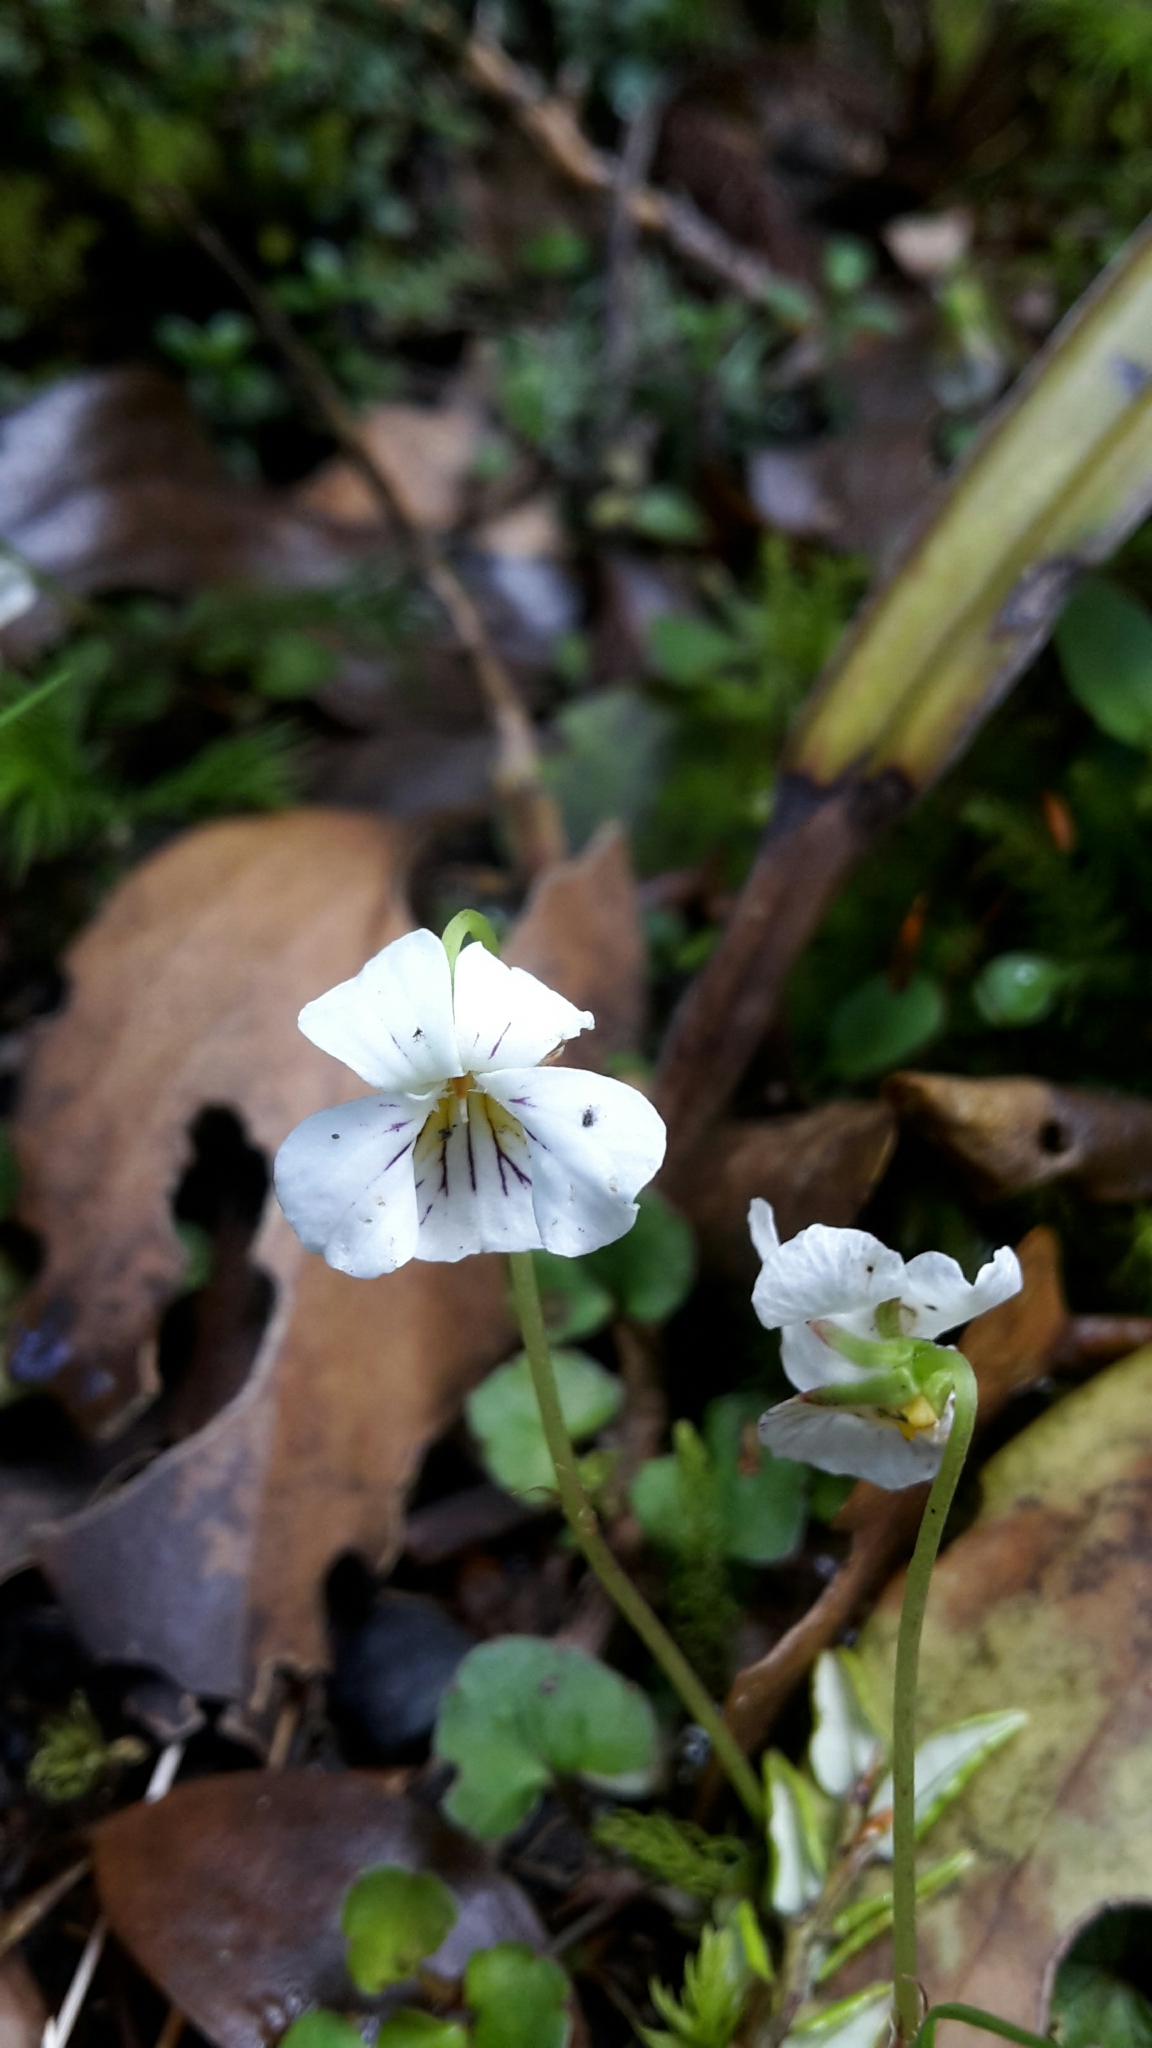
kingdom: Plantae
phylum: Tracheophyta
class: Magnoliopsida
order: Malpighiales
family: Violaceae
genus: Viola
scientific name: Viola filicaulis
